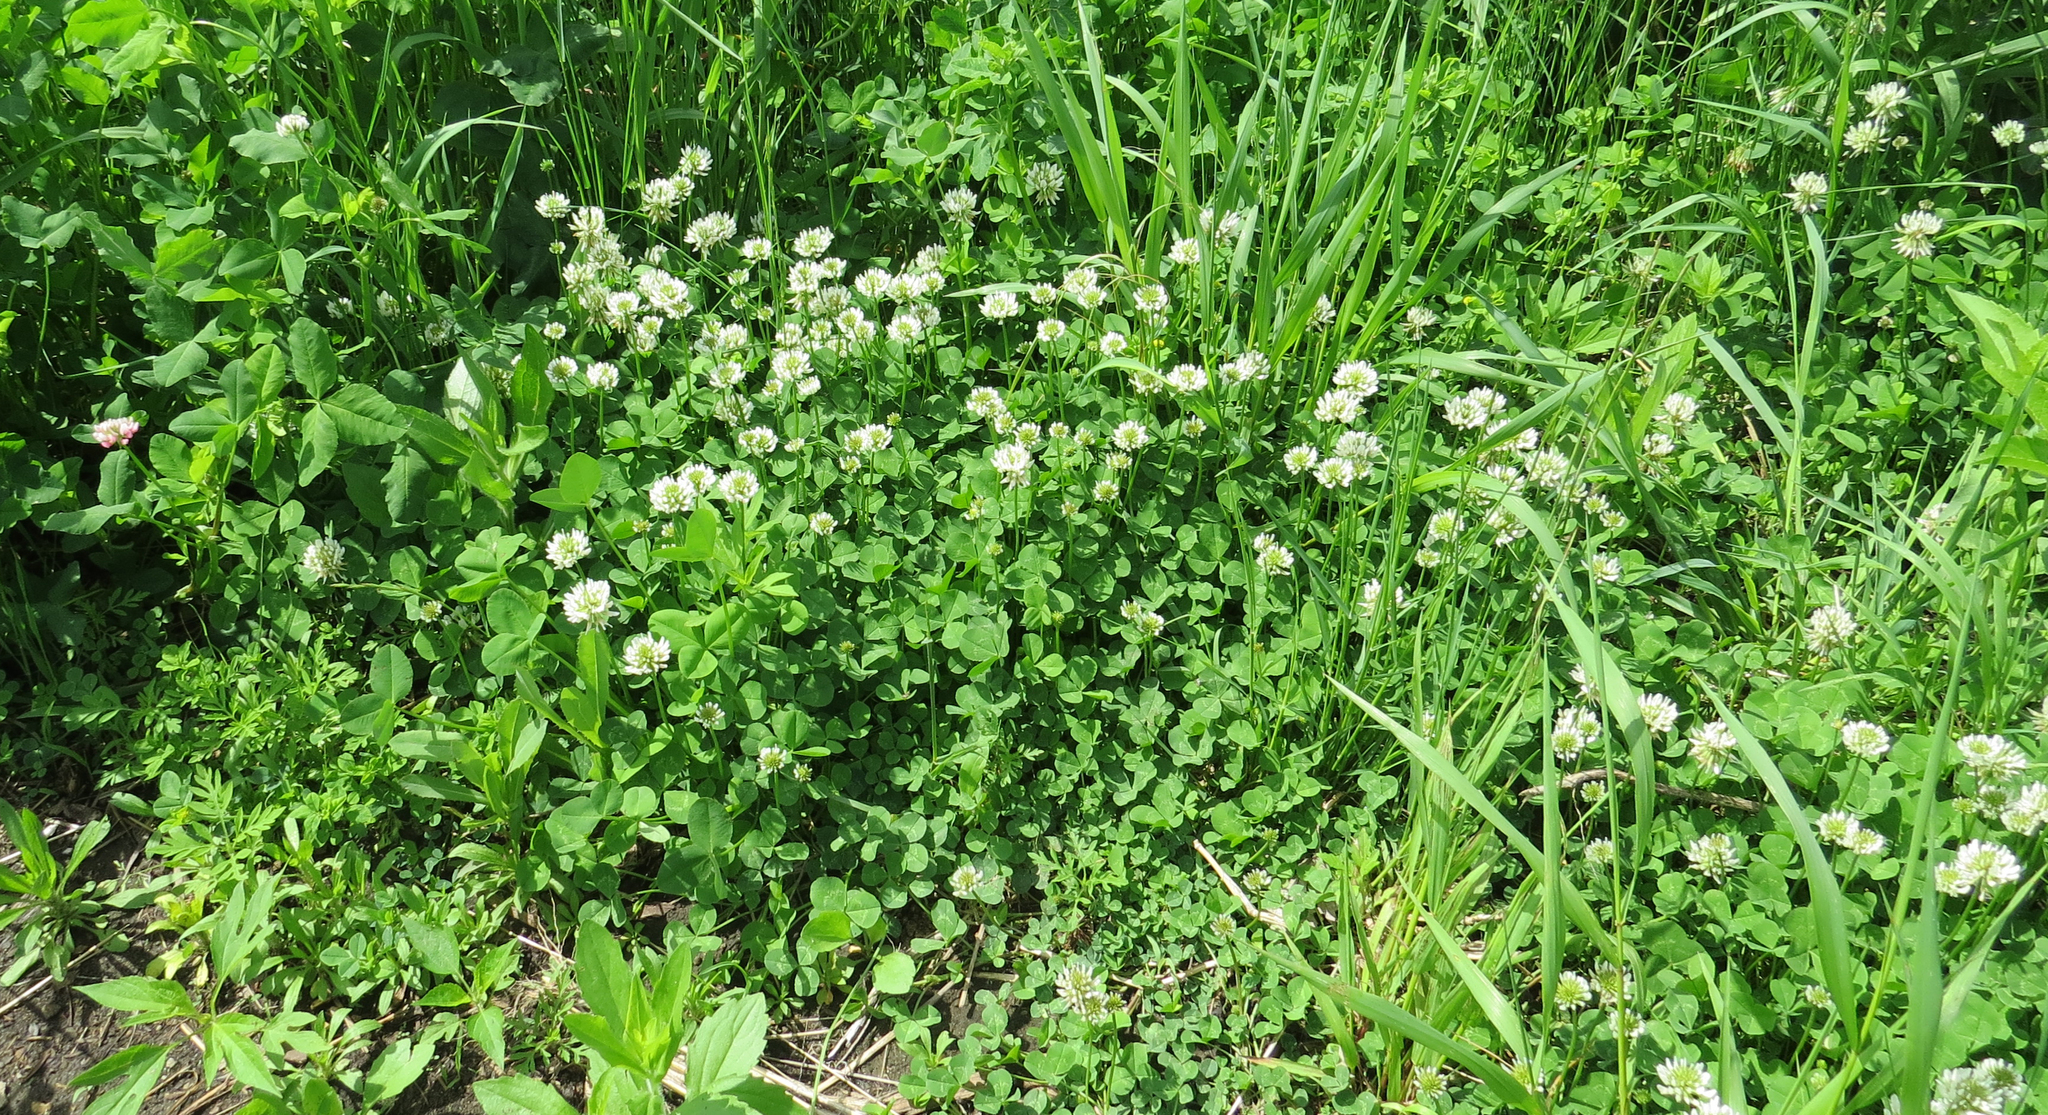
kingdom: Plantae
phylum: Tracheophyta
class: Magnoliopsida
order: Fabales
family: Fabaceae
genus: Trifolium
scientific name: Trifolium repens
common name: White clover
